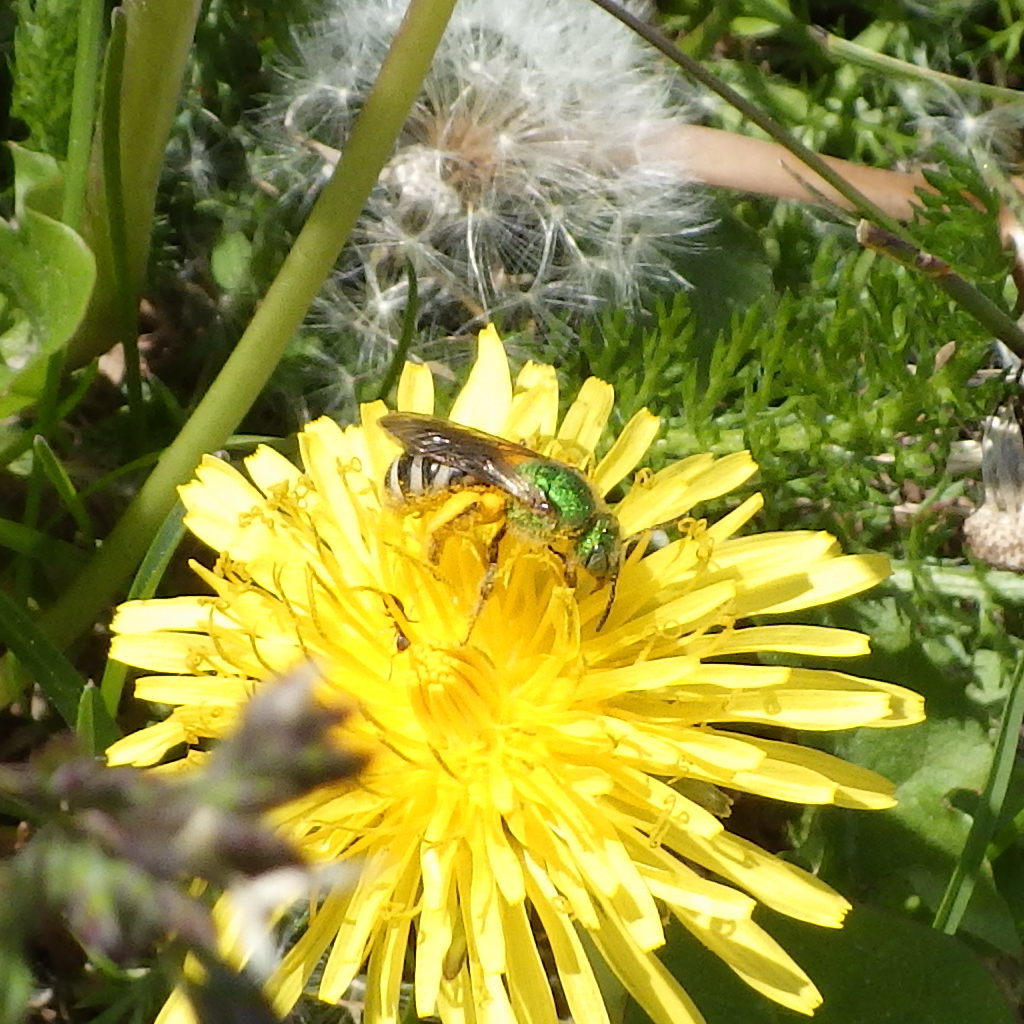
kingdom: Animalia
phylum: Arthropoda
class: Insecta
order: Hymenoptera
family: Halictidae
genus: Agapostemon
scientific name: Agapostemon virescens
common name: Bicolored striped sweat bee
